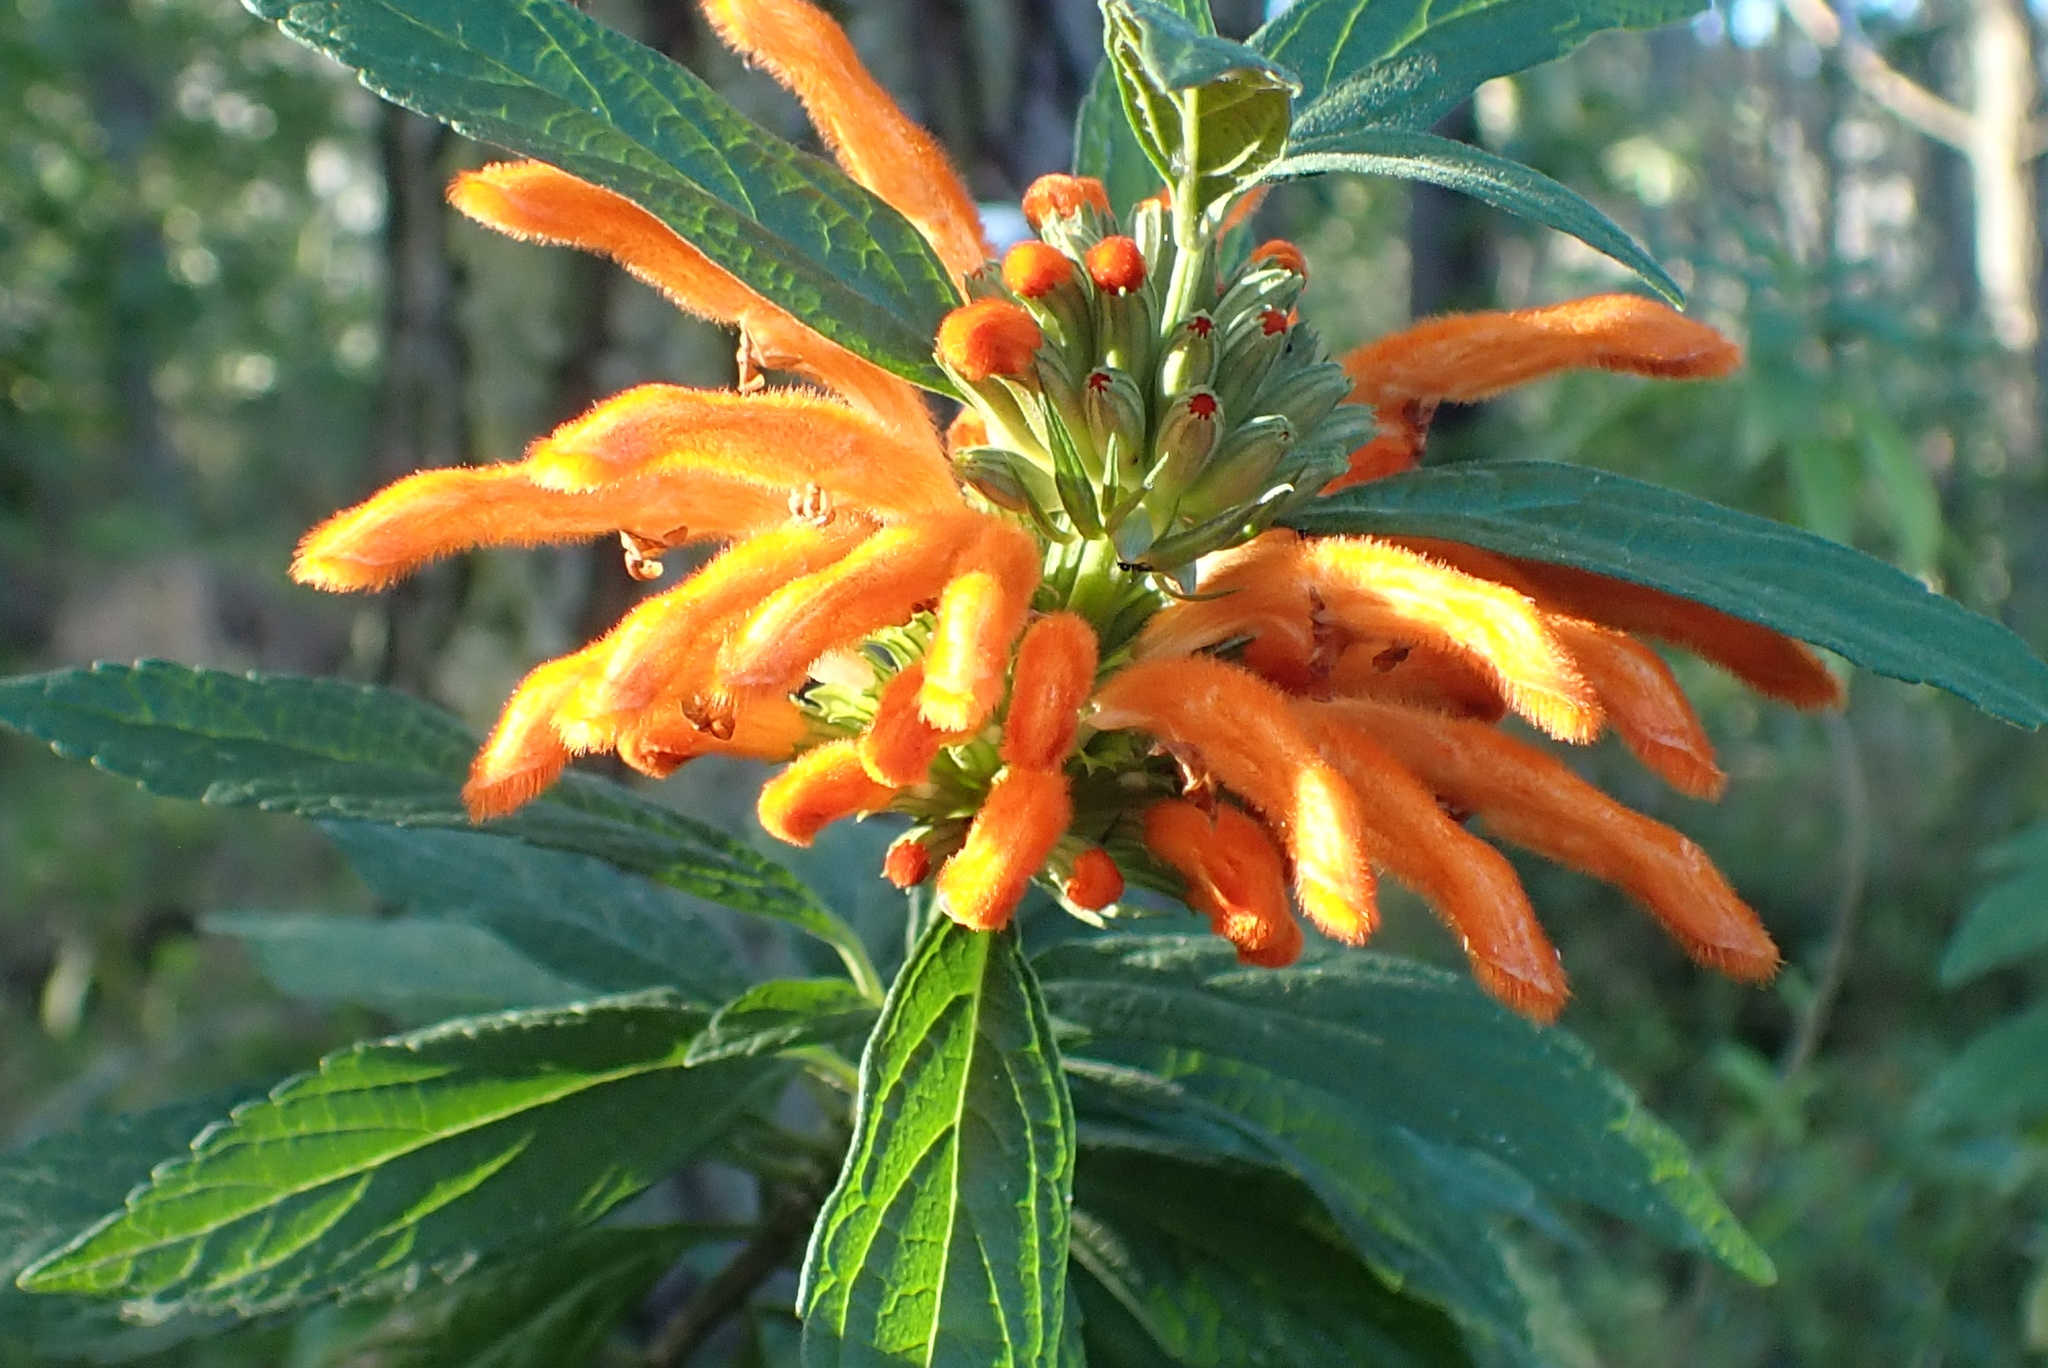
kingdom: Plantae
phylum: Tracheophyta
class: Magnoliopsida
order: Lamiales
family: Lamiaceae
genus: Leonotis
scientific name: Leonotis leonurus
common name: Lion's ear
